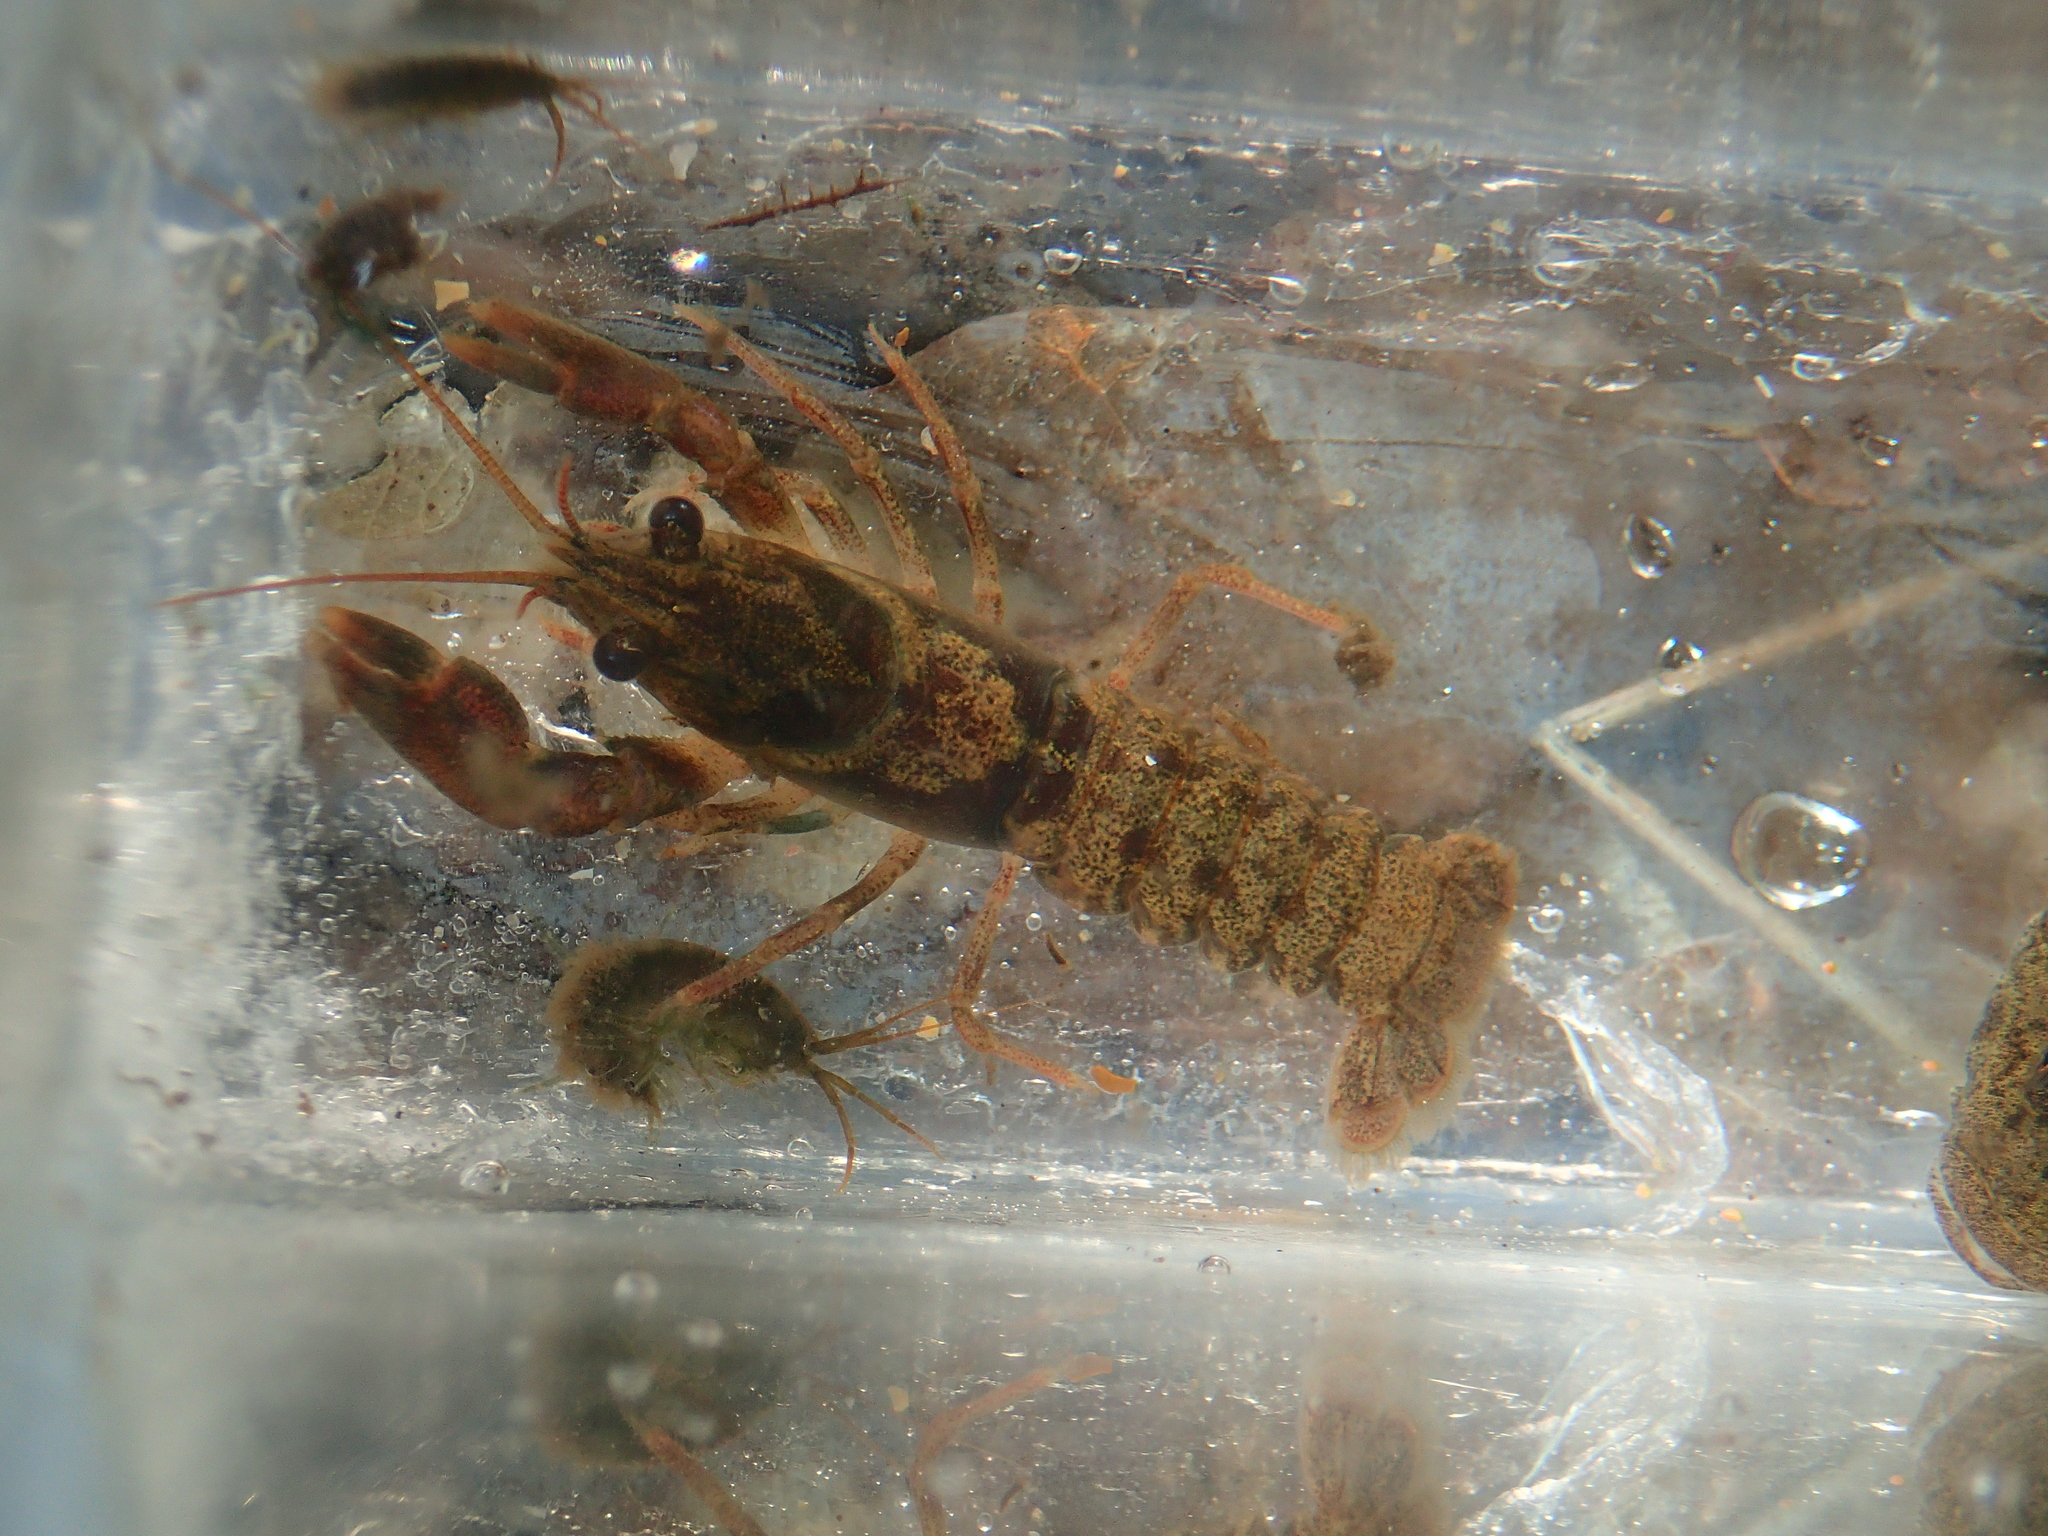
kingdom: Animalia
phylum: Arthropoda
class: Malacostraca
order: Decapoda
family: Cambaridae
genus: Faxonius
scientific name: Faxonius limosus
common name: American crayfish
